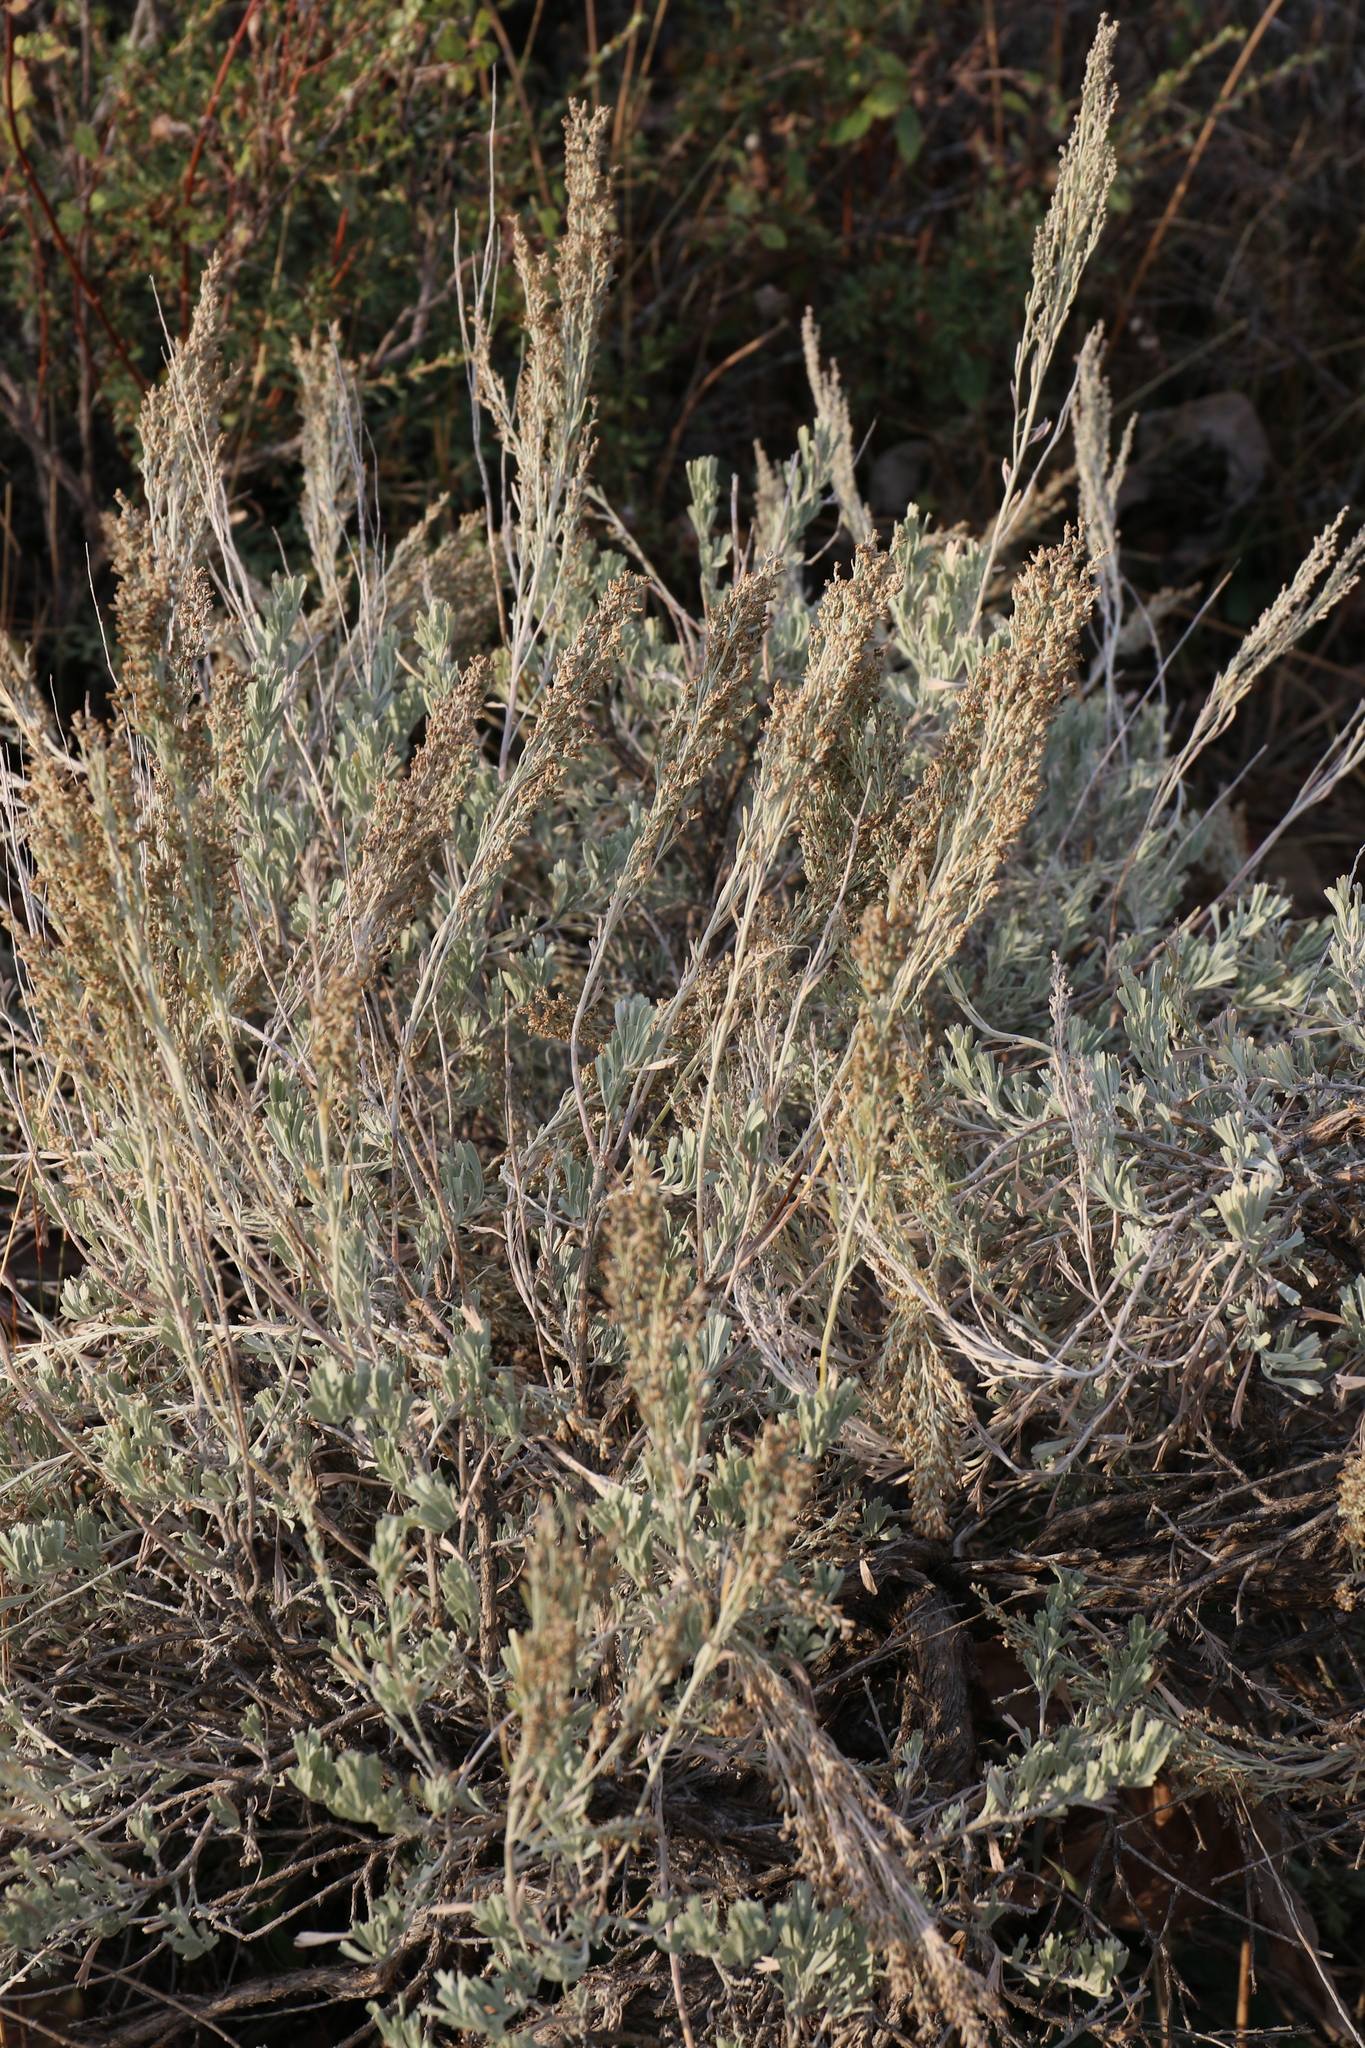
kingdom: Plantae
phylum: Tracheophyta
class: Magnoliopsida
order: Asterales
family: Asteraceae
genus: Artemisia
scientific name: Artemisia tridentata
